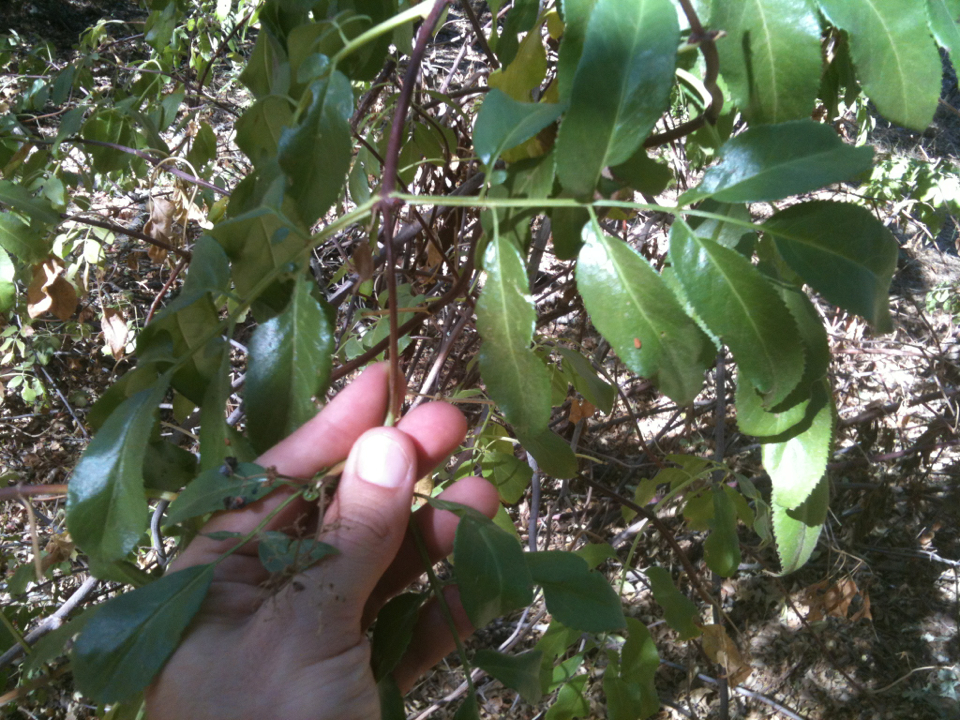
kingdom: Plantae
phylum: Tracheophyta
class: Magnoliopsida
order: Dipsacales
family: Viburnaceae
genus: Sambucus
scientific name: Sambucus cerulea
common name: Blue elder
